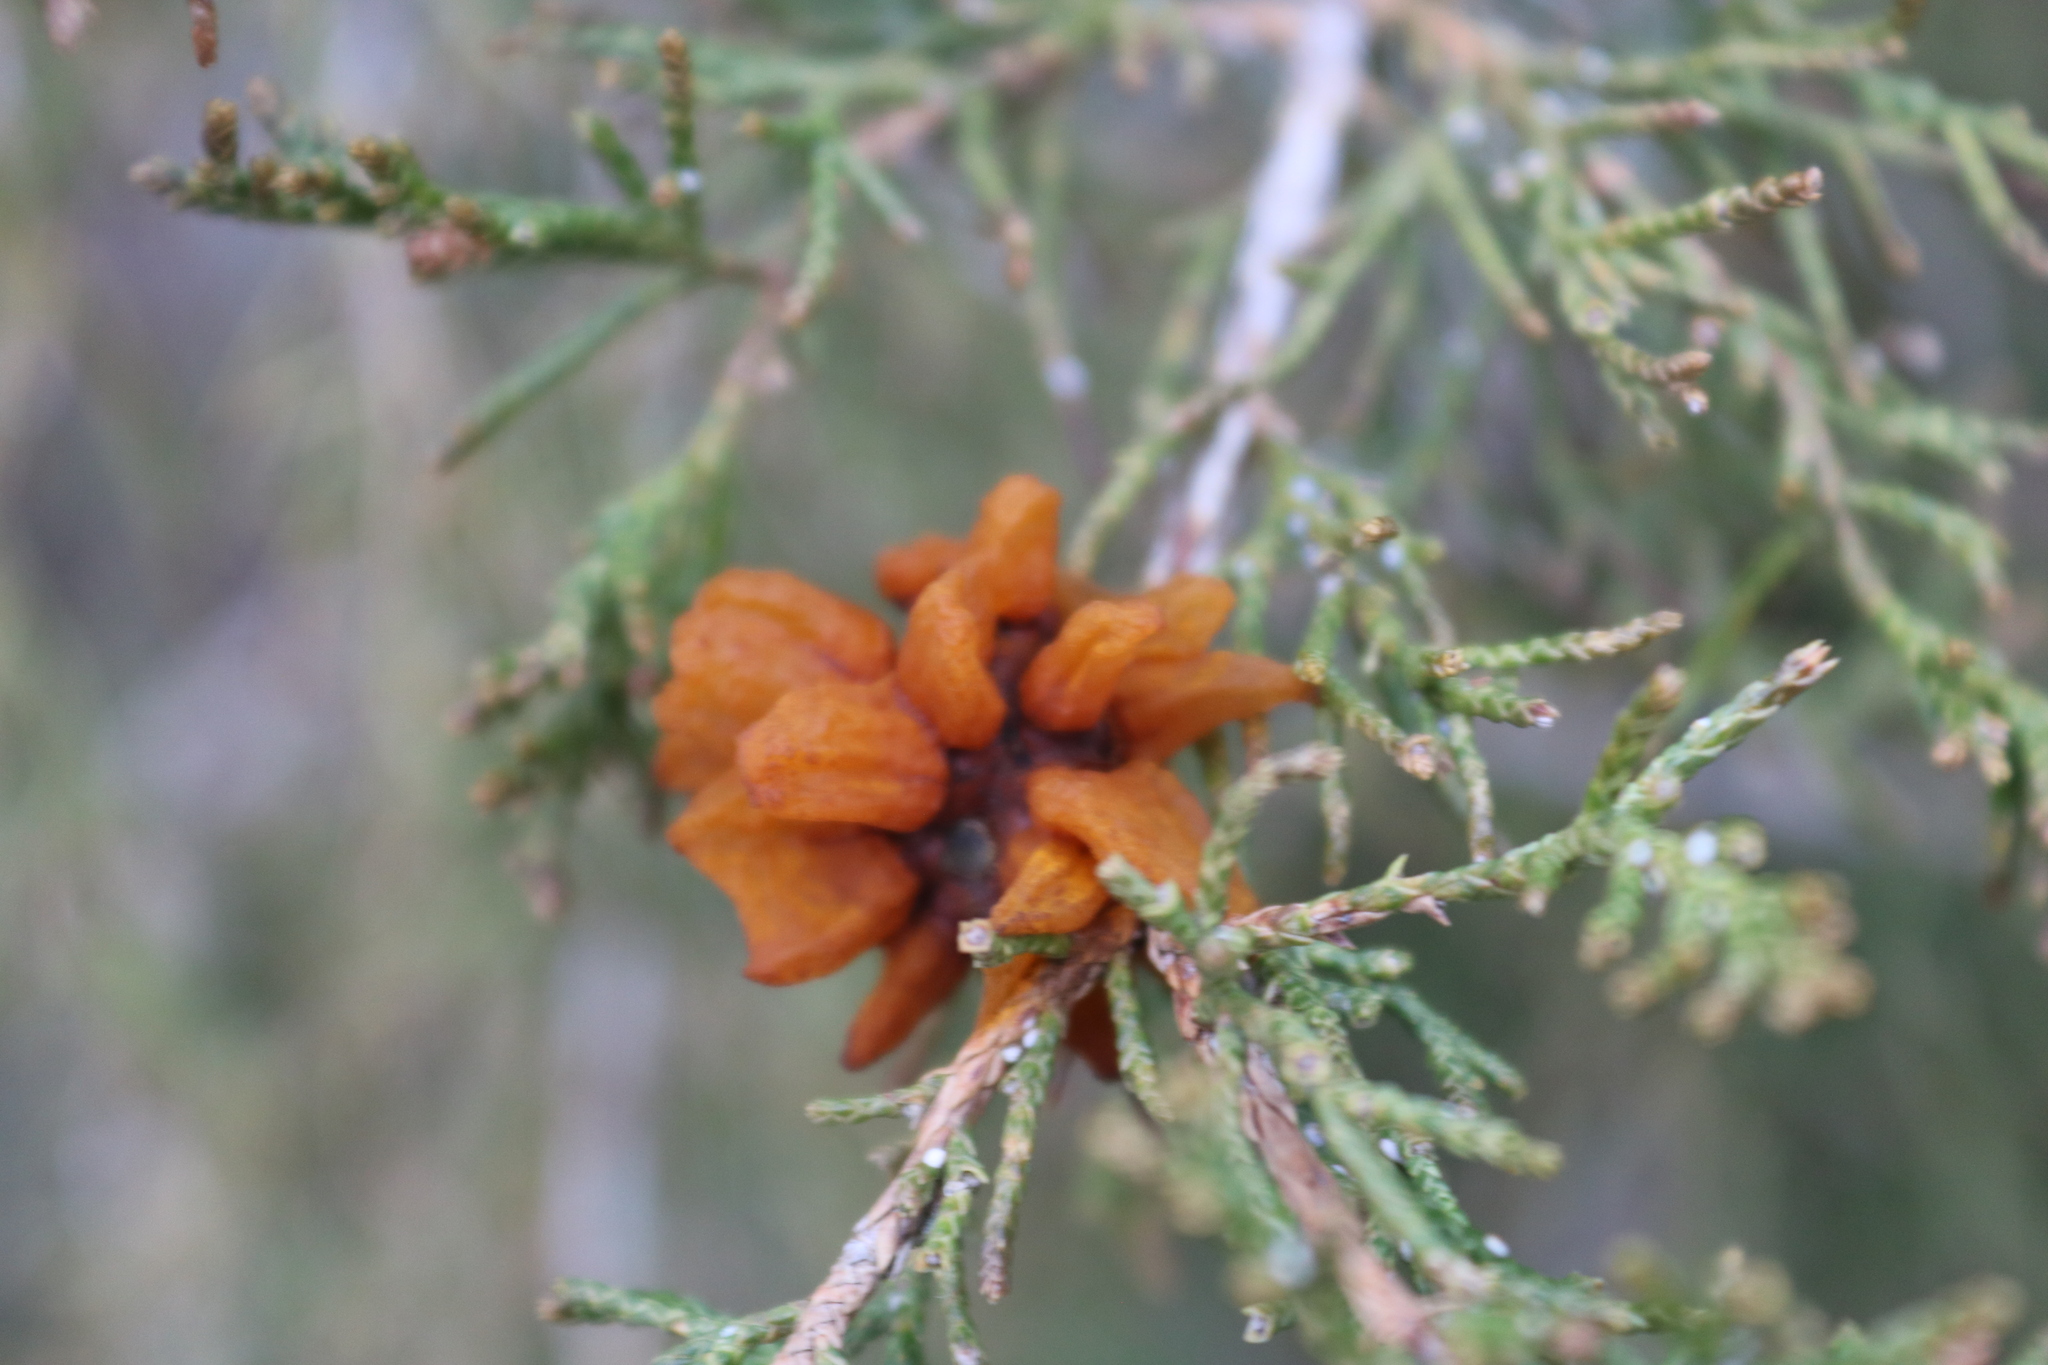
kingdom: Fungi
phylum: Basidiomycota
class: Pucciniomycetes
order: Pucciniales
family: Gymnosporangiaceae
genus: Gymnosporangium
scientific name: Gymnosporangium juniperi-virginianae
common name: Juniper-apple rust
